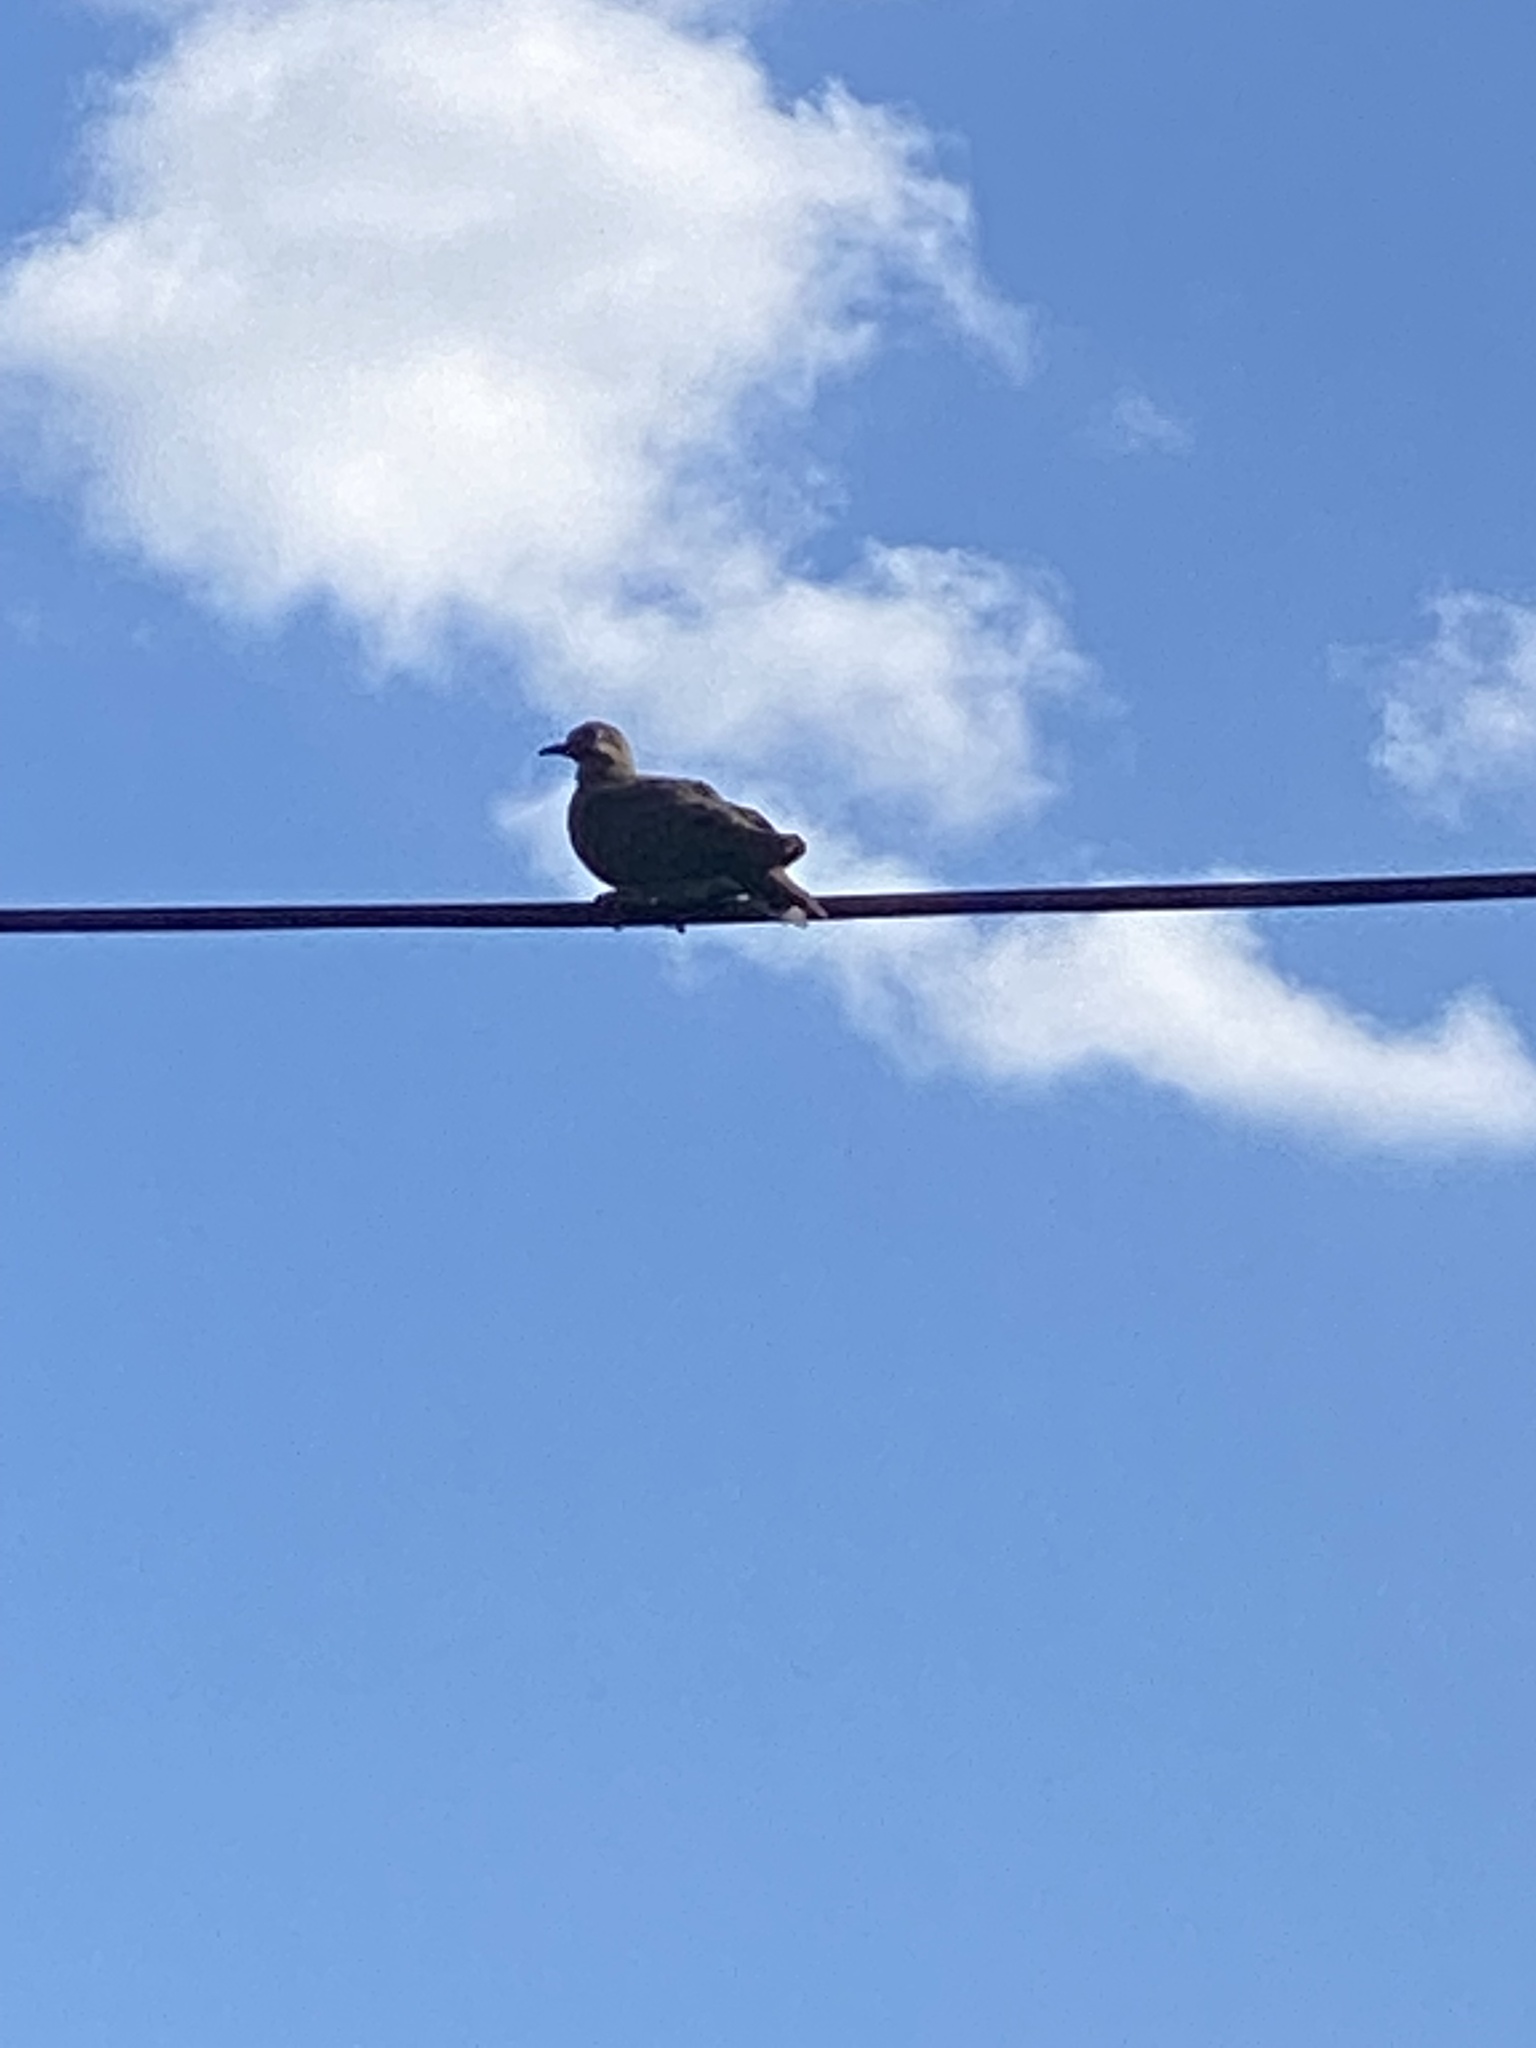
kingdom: Animalia
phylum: Chordata
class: Aves
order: Columbiformes
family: Columbidae
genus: Zenaida
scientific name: Zenaida macroura
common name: Mourning dove
